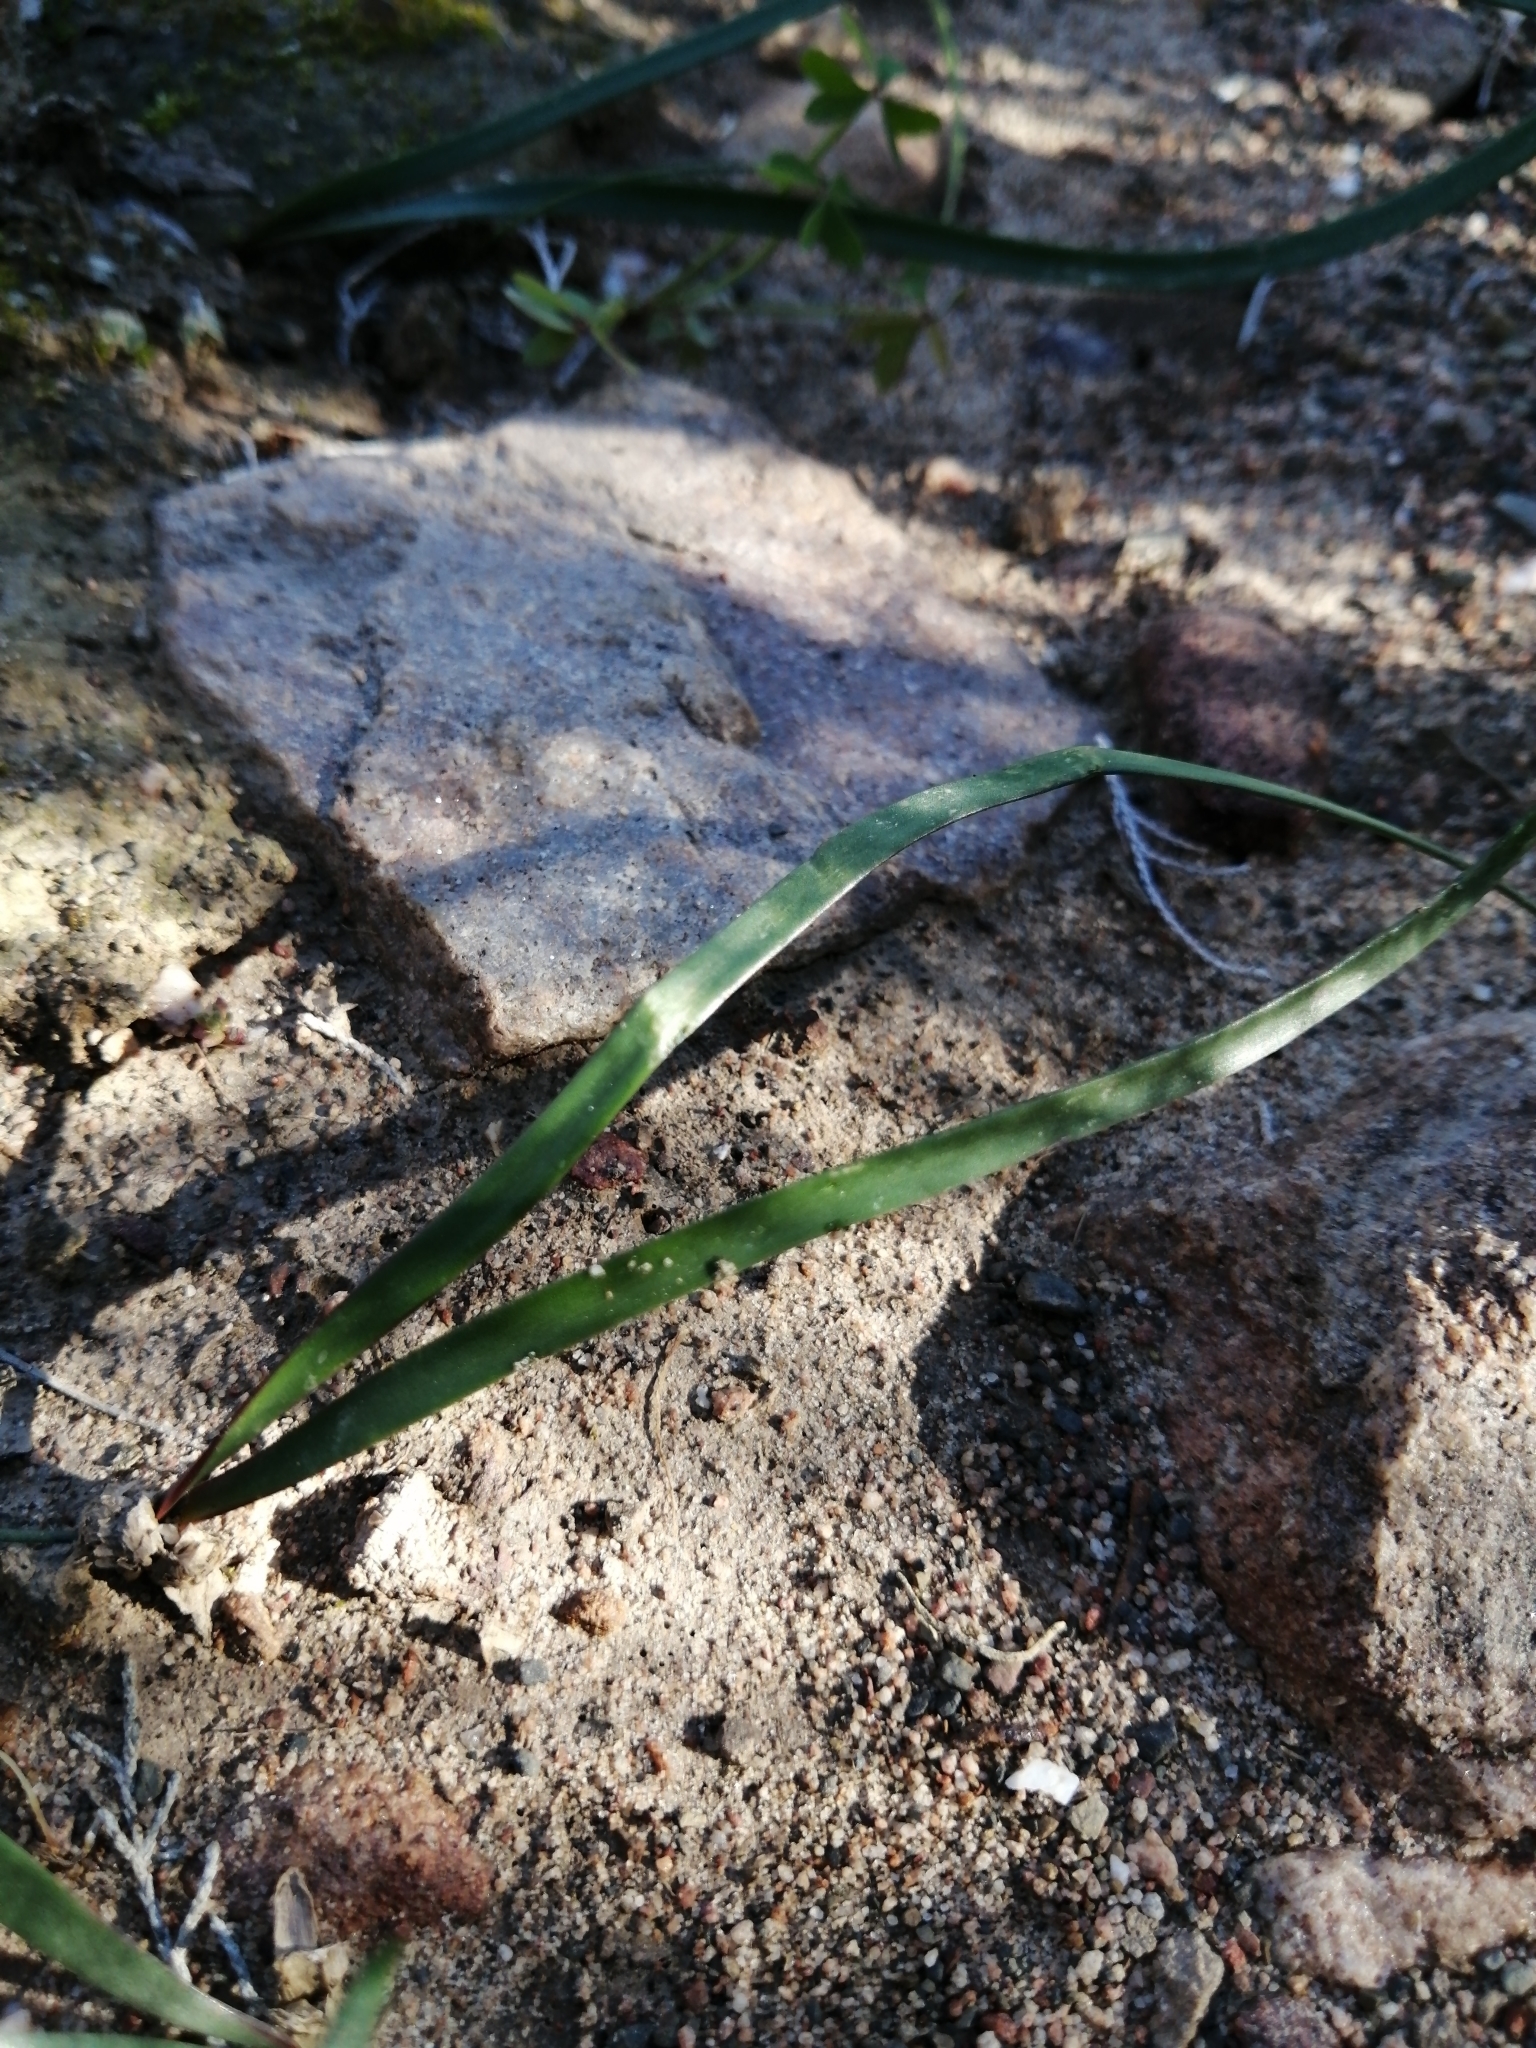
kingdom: Plantae
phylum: Tracheophyta
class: Liliopsida
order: Asparagales
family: Amaryllidaceae
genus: Hessea
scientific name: Hessea stellaris
